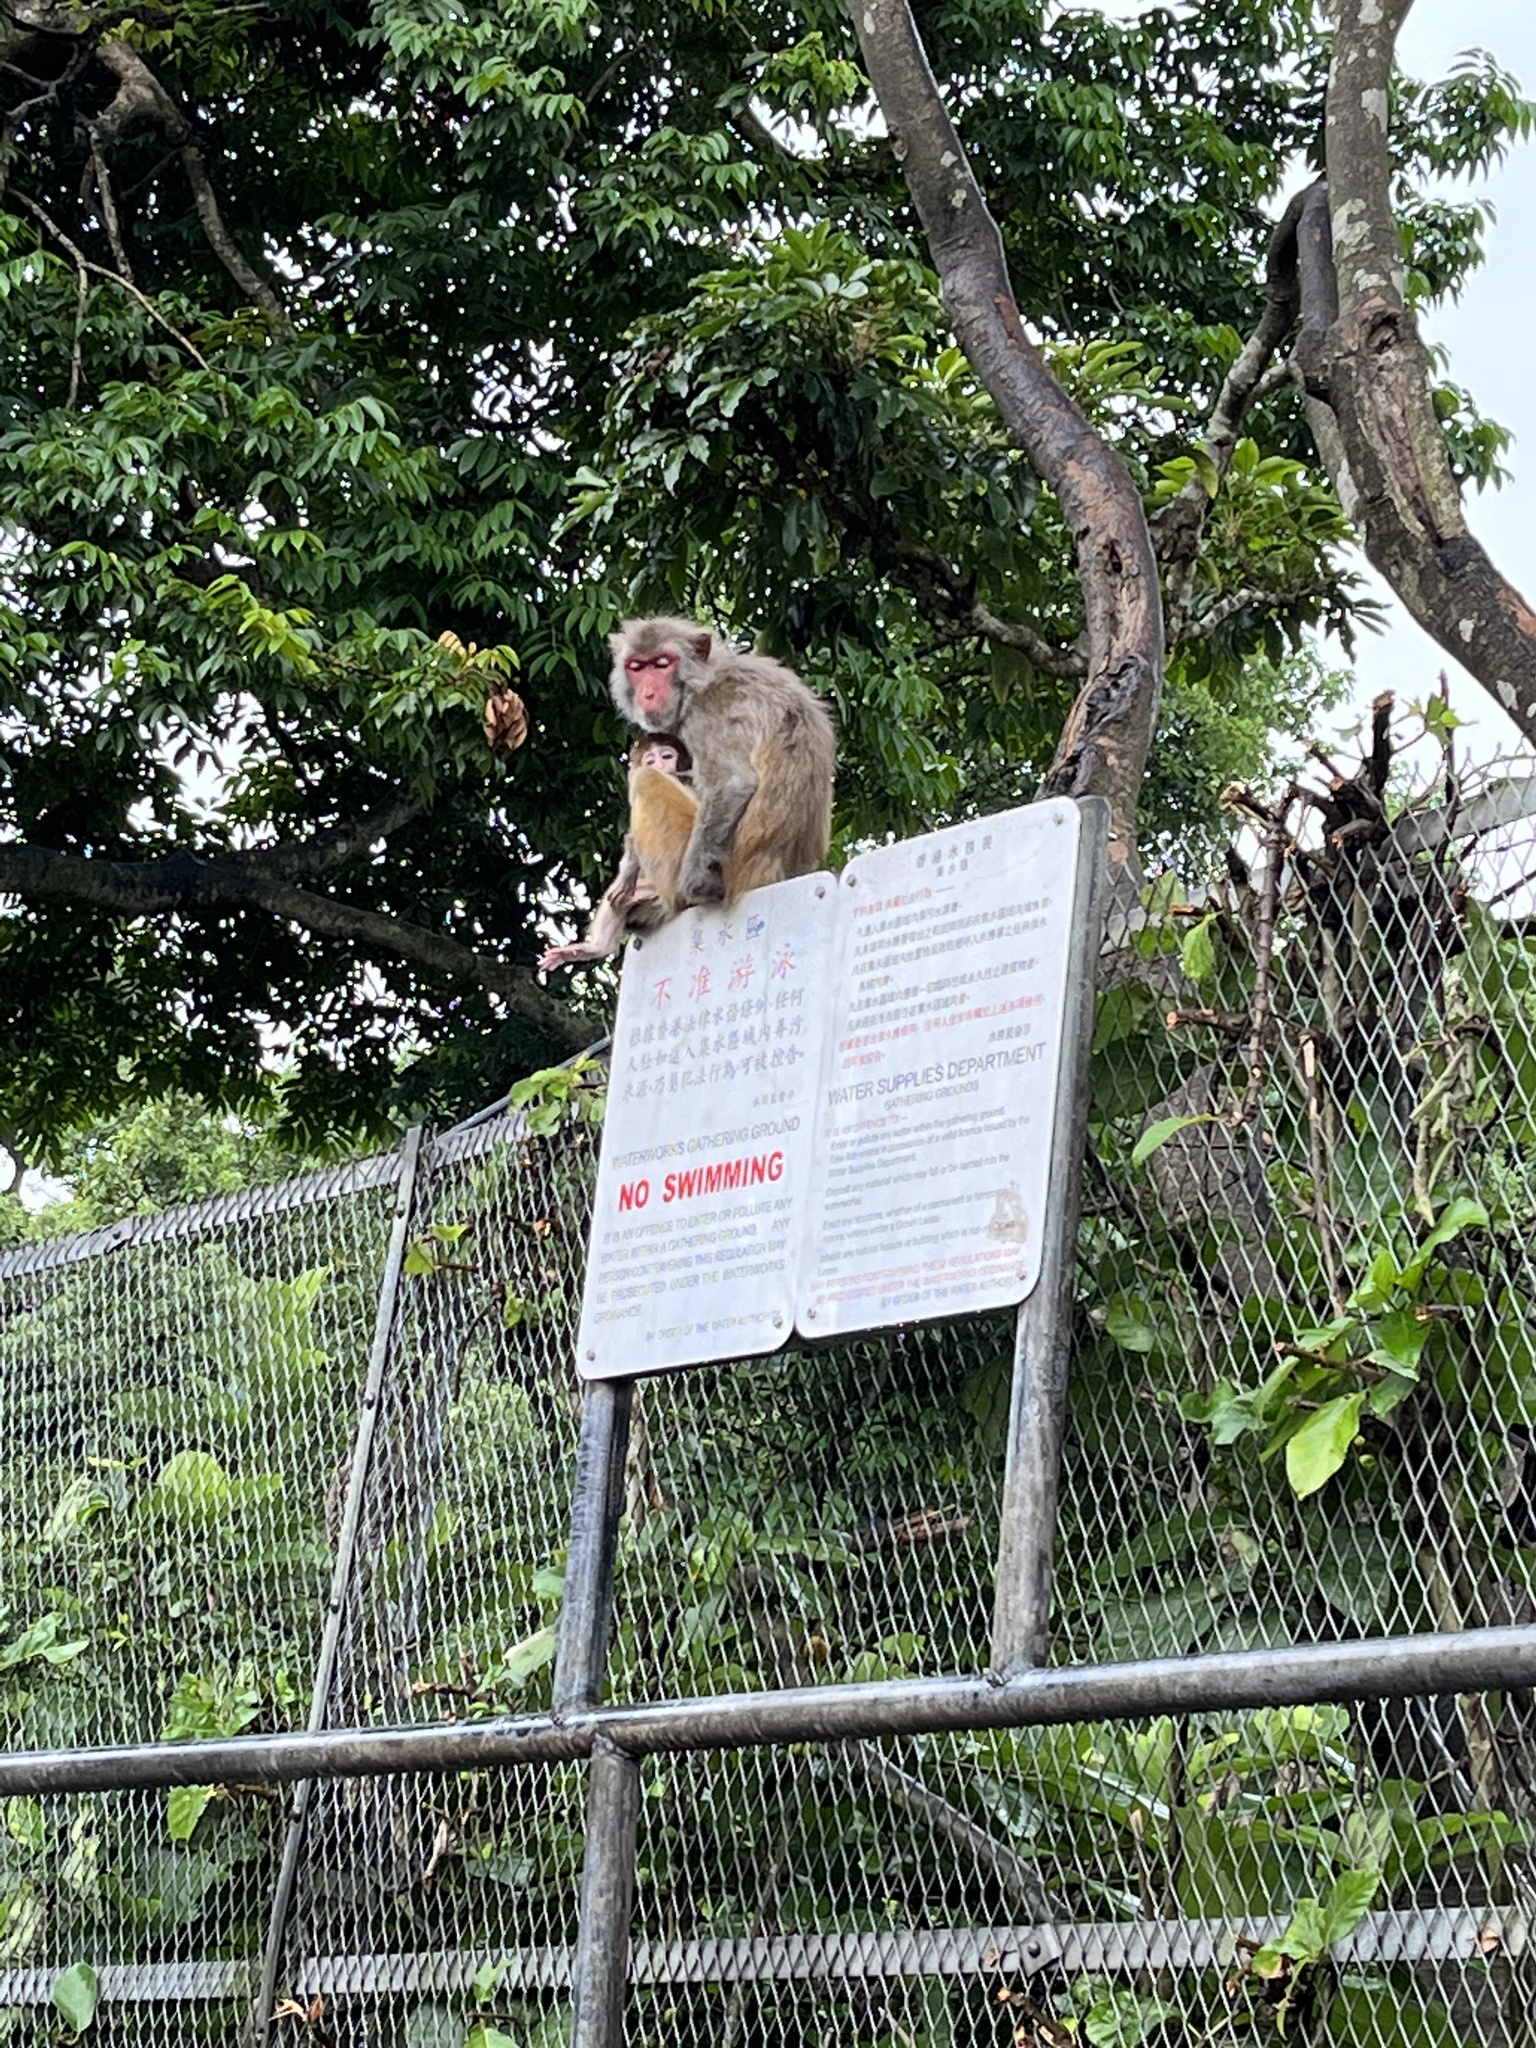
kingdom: Animalia
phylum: Chordata
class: Mammalia
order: Primates
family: Cercopithecidae
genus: Macaca
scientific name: Macaca mulatta
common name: Rhesus monkey
